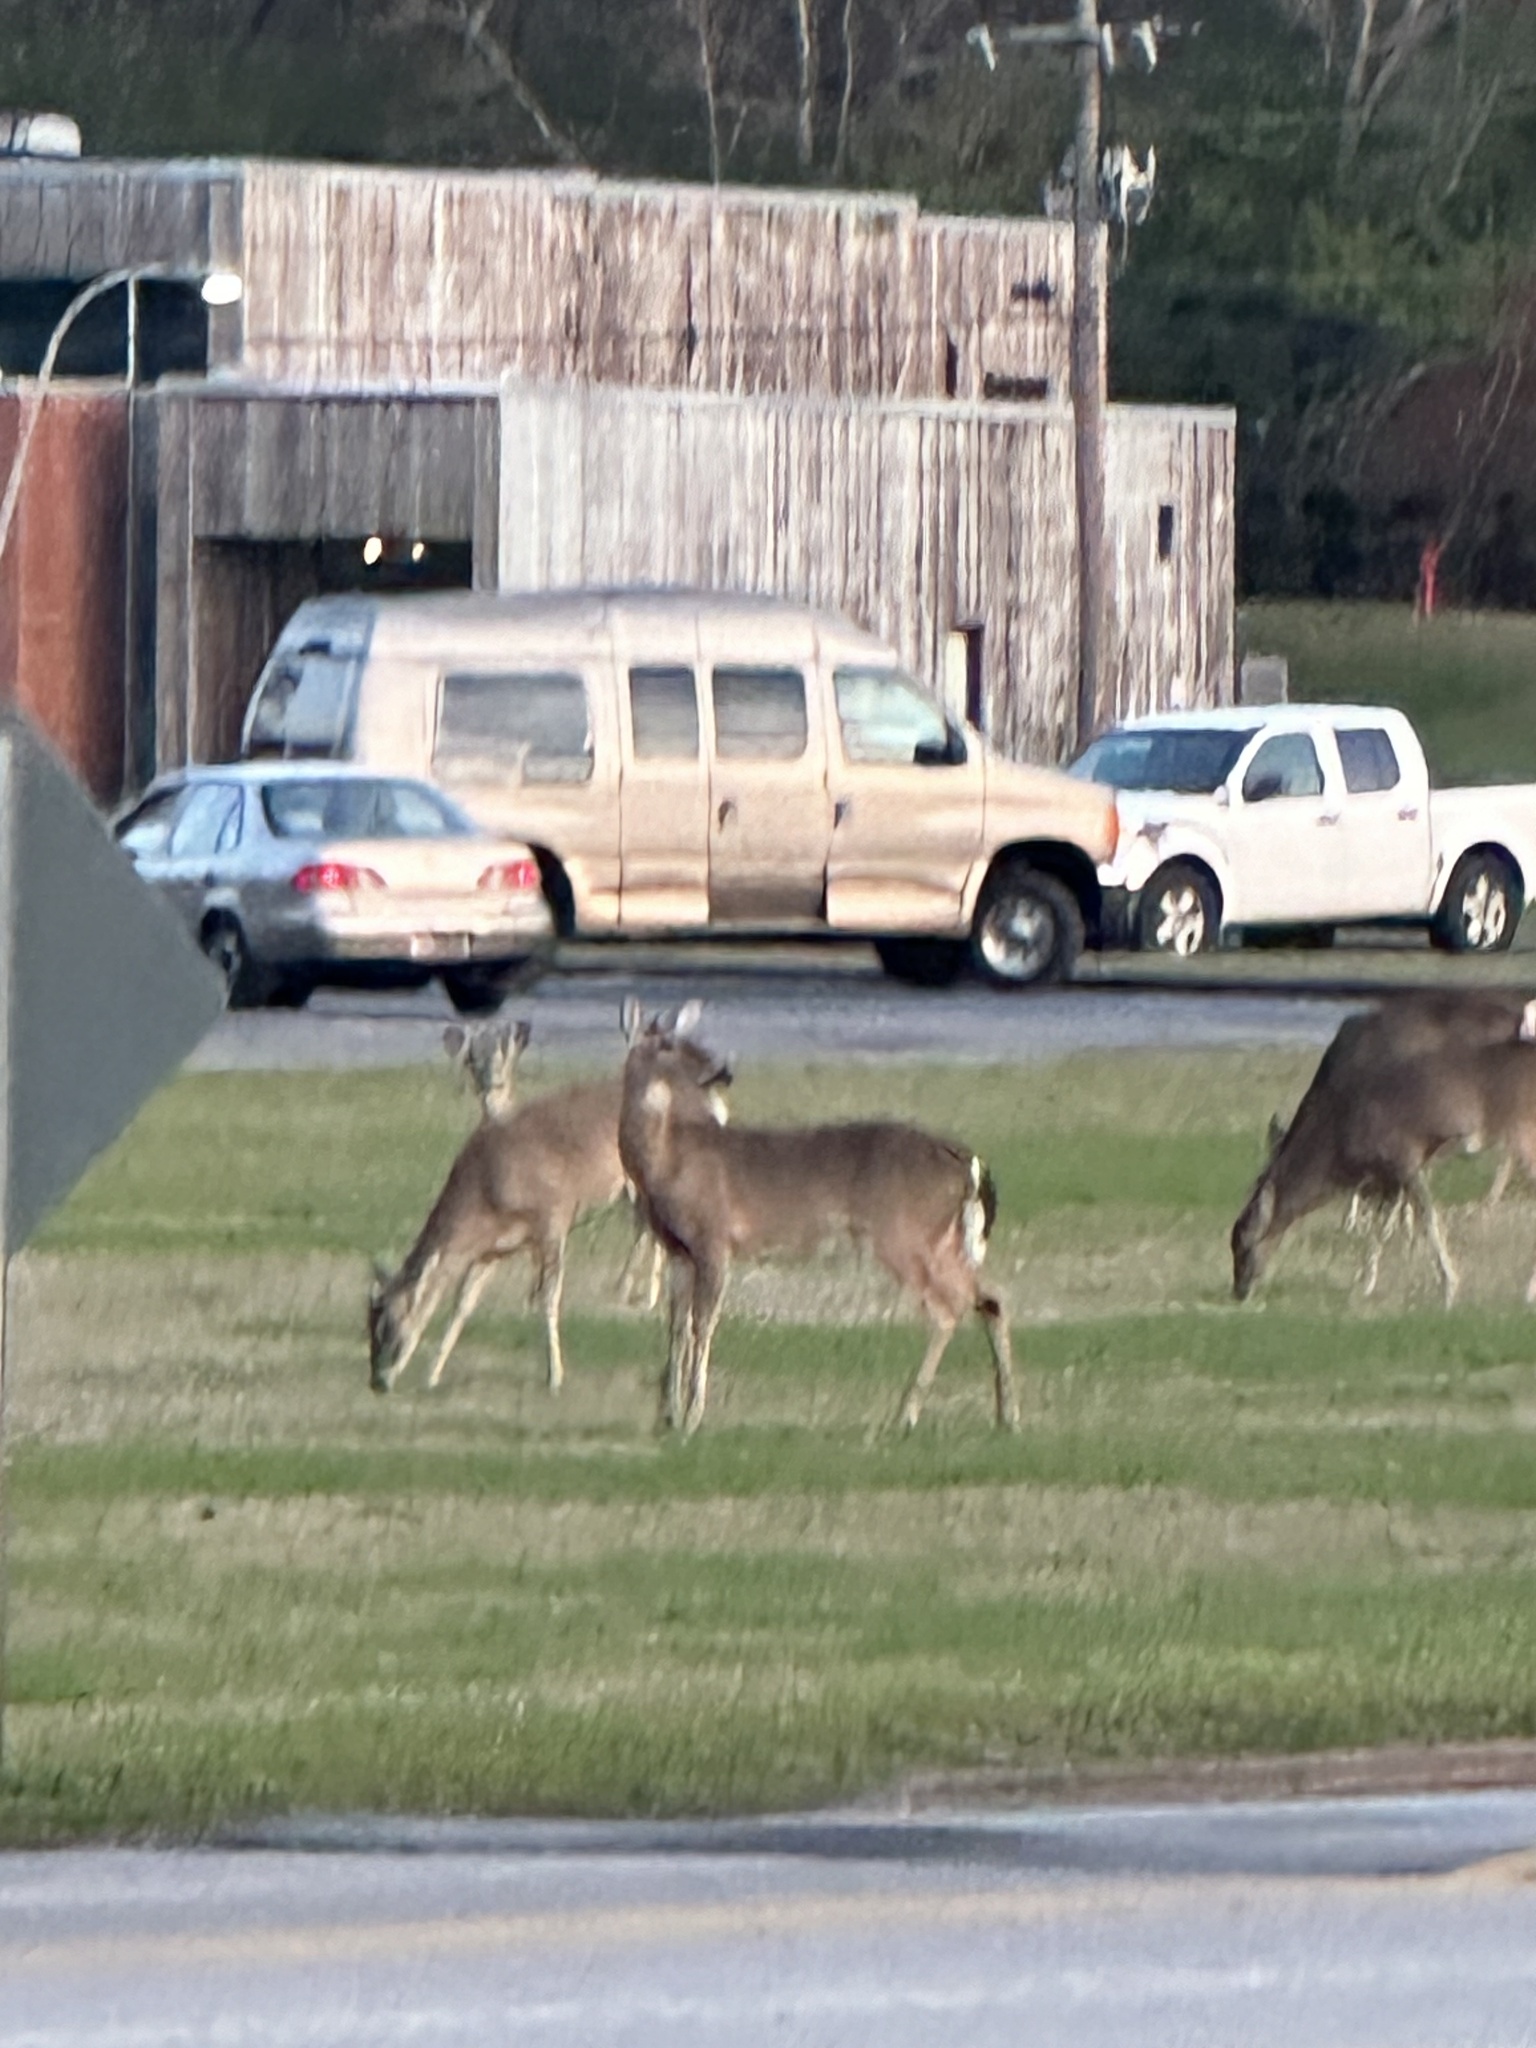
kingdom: Animalia
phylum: Chordata
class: Mammalia
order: Artiodactyla
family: Cervidae
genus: Odocoileus
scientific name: Odocoileus virginianus
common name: White-tailed deer
